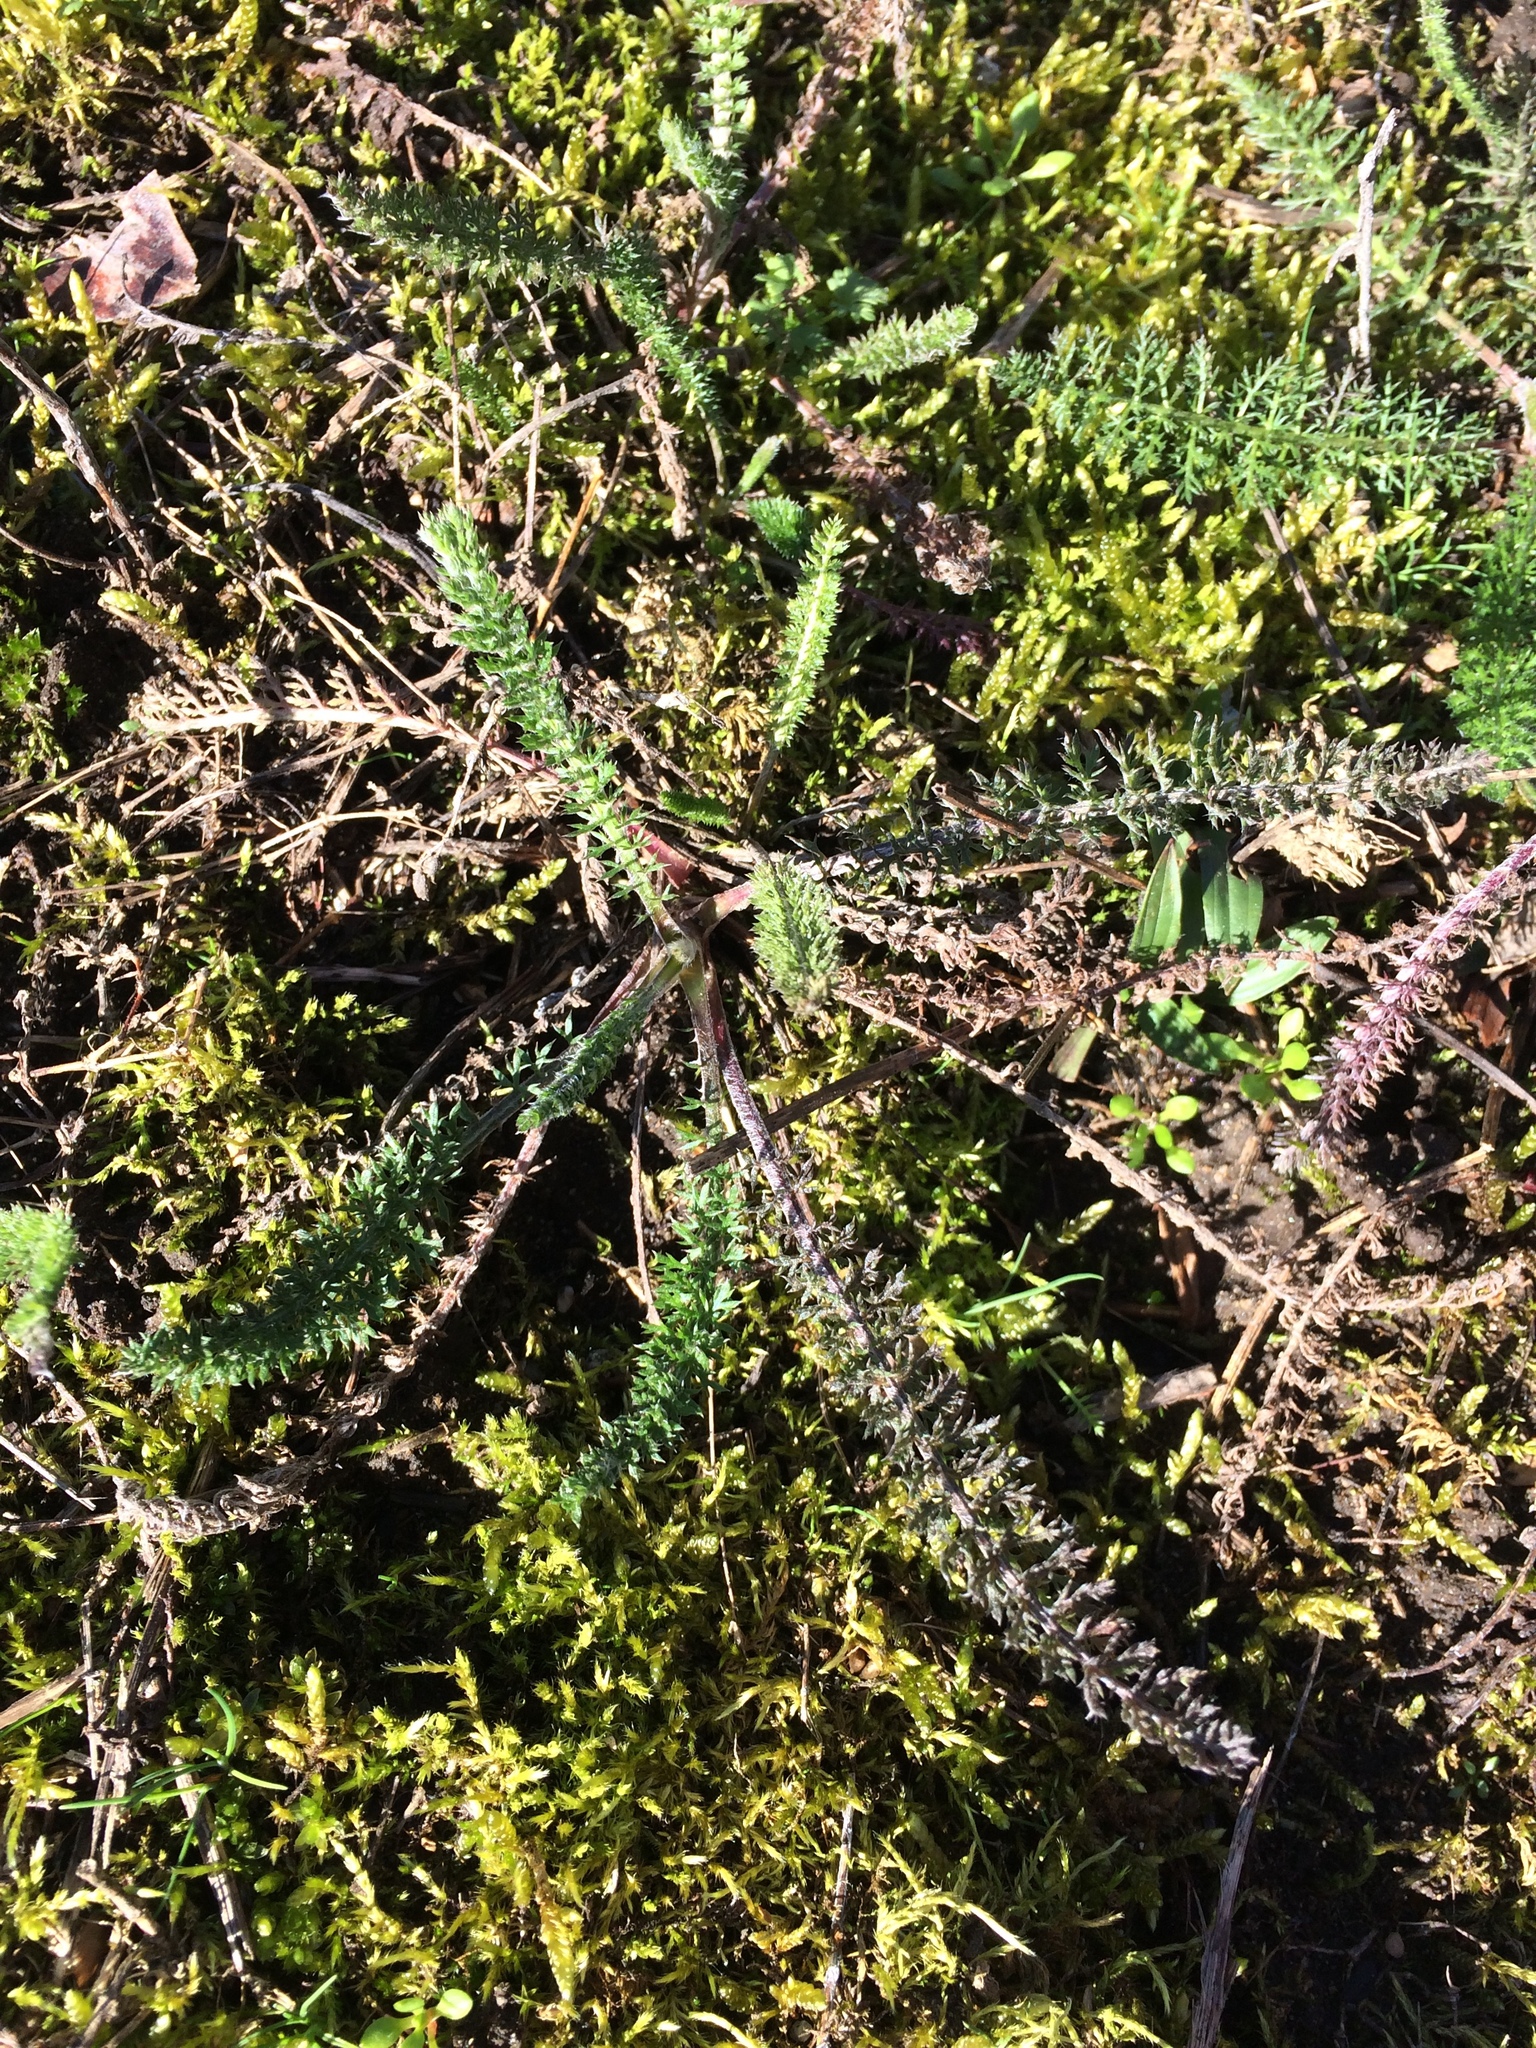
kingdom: Plantae
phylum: Tracheophyta
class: Magnoliopsida
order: Asterales
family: Asteraceae
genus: Achillea
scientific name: Achillea millefolium
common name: Yarrow
